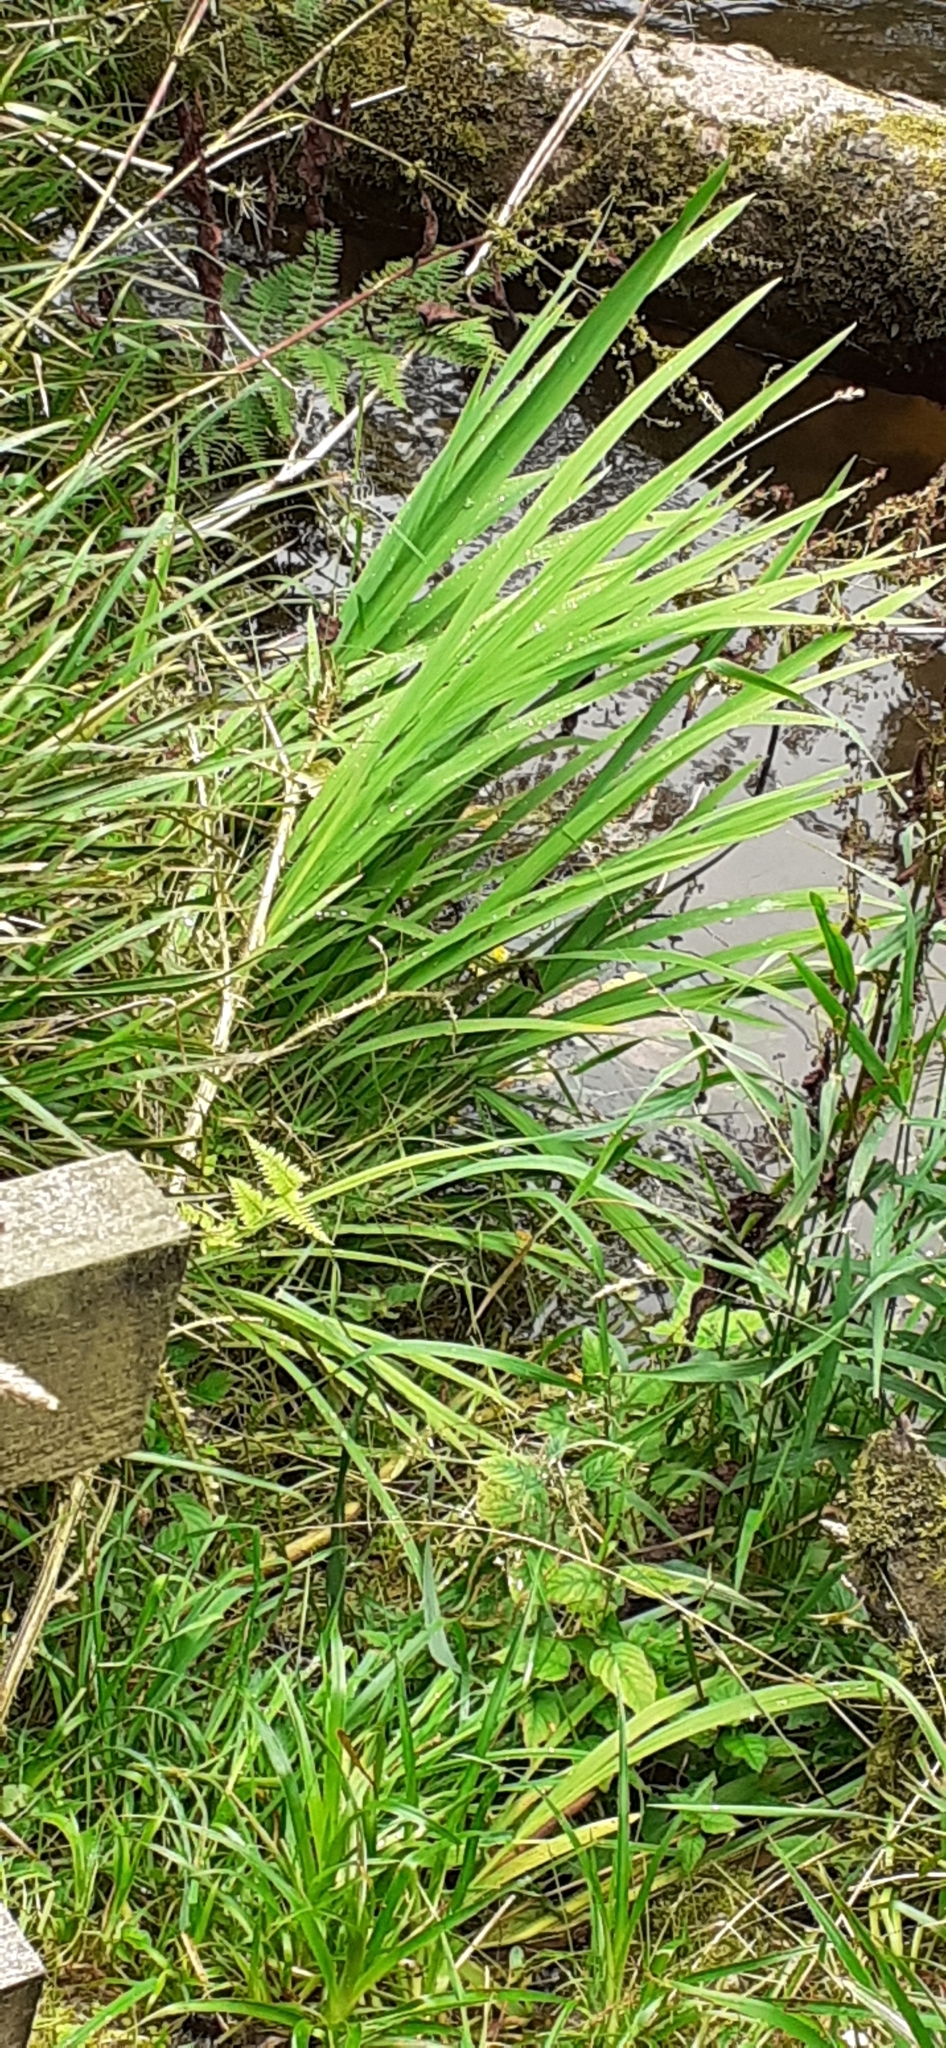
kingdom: Plantae
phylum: Tracheophyta
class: Liliopsida
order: Asparagales
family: Iridaceae
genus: Crocosmia
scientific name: Crocosmia crocosmiiflora
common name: Montbretia
